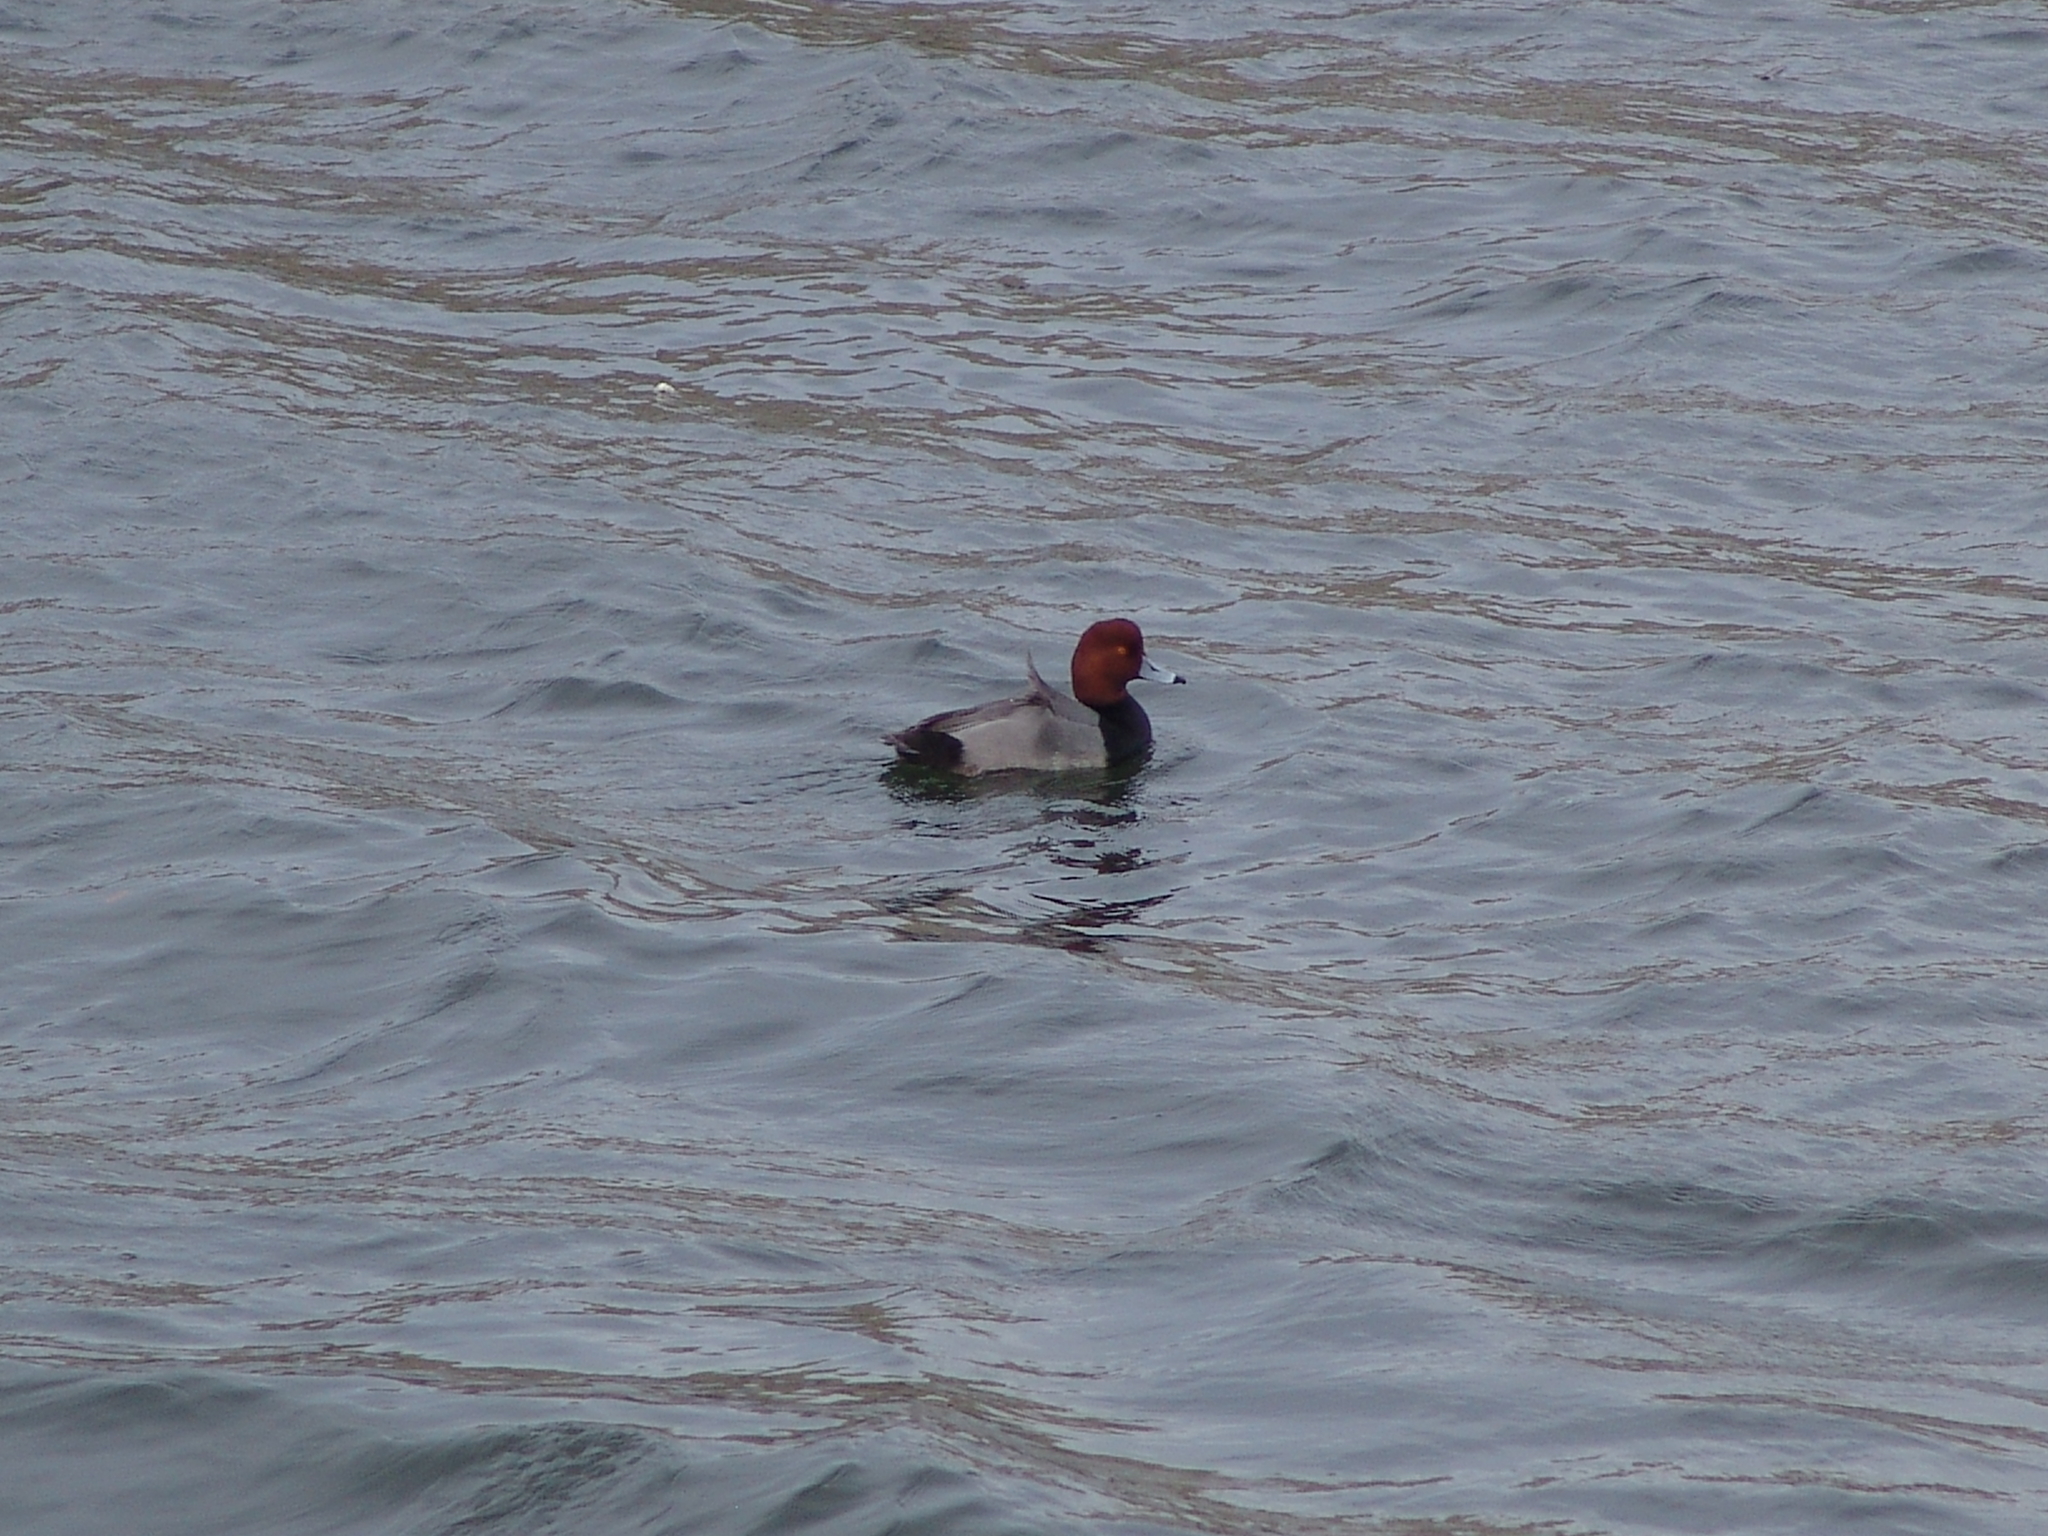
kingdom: Animalia
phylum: Chordata
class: Aves
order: Anseriformes
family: Anatidae
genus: Aythya
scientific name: Aythya americana
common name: Redhead
